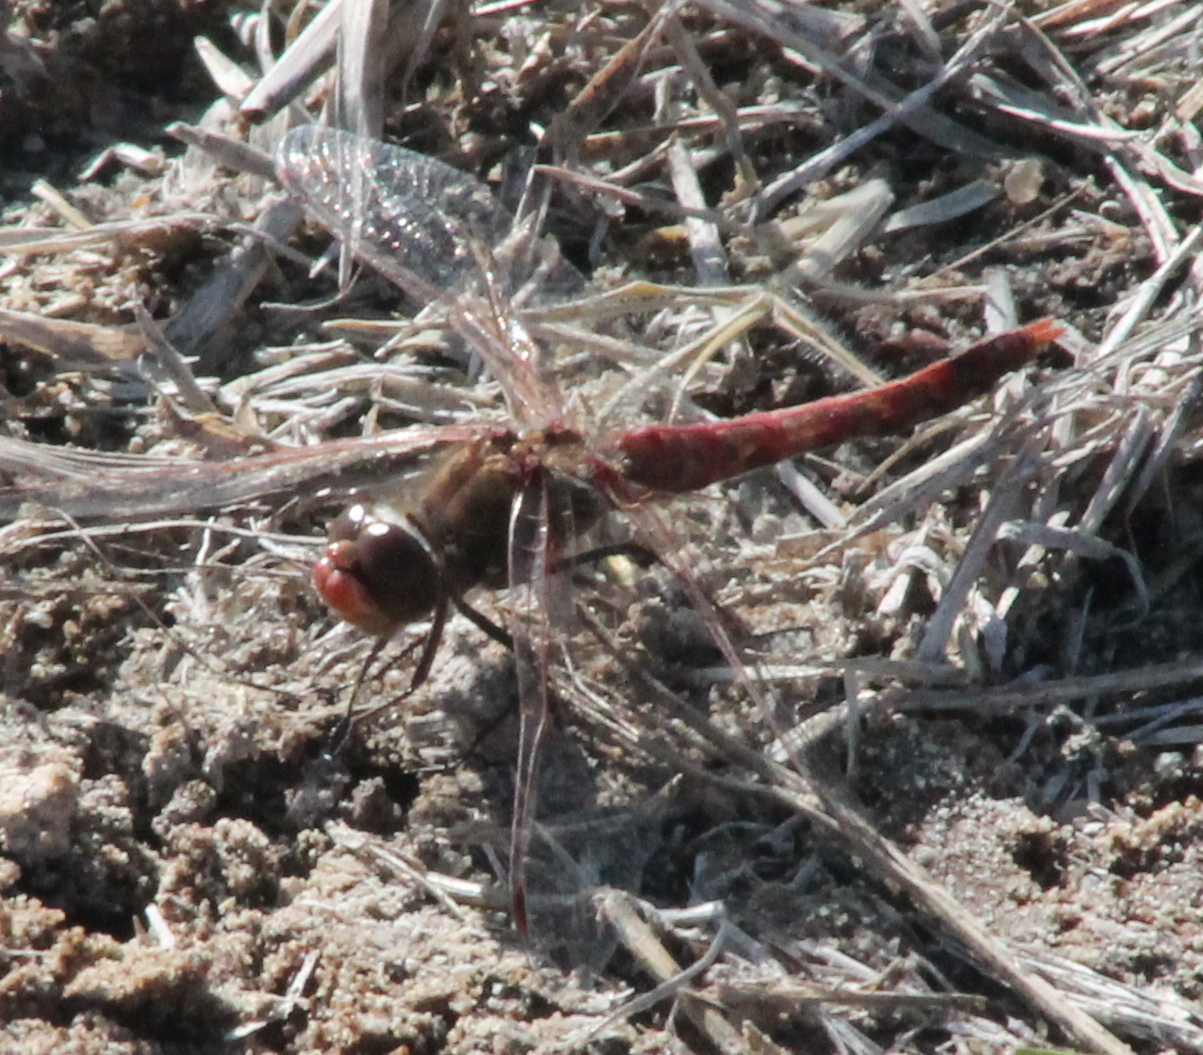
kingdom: Animalia
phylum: Arthropoda
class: Insecta
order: Odonata
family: Libellulidae
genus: Sympetrum
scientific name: Sympetrum corruptum
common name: Variegated meadowhawk
